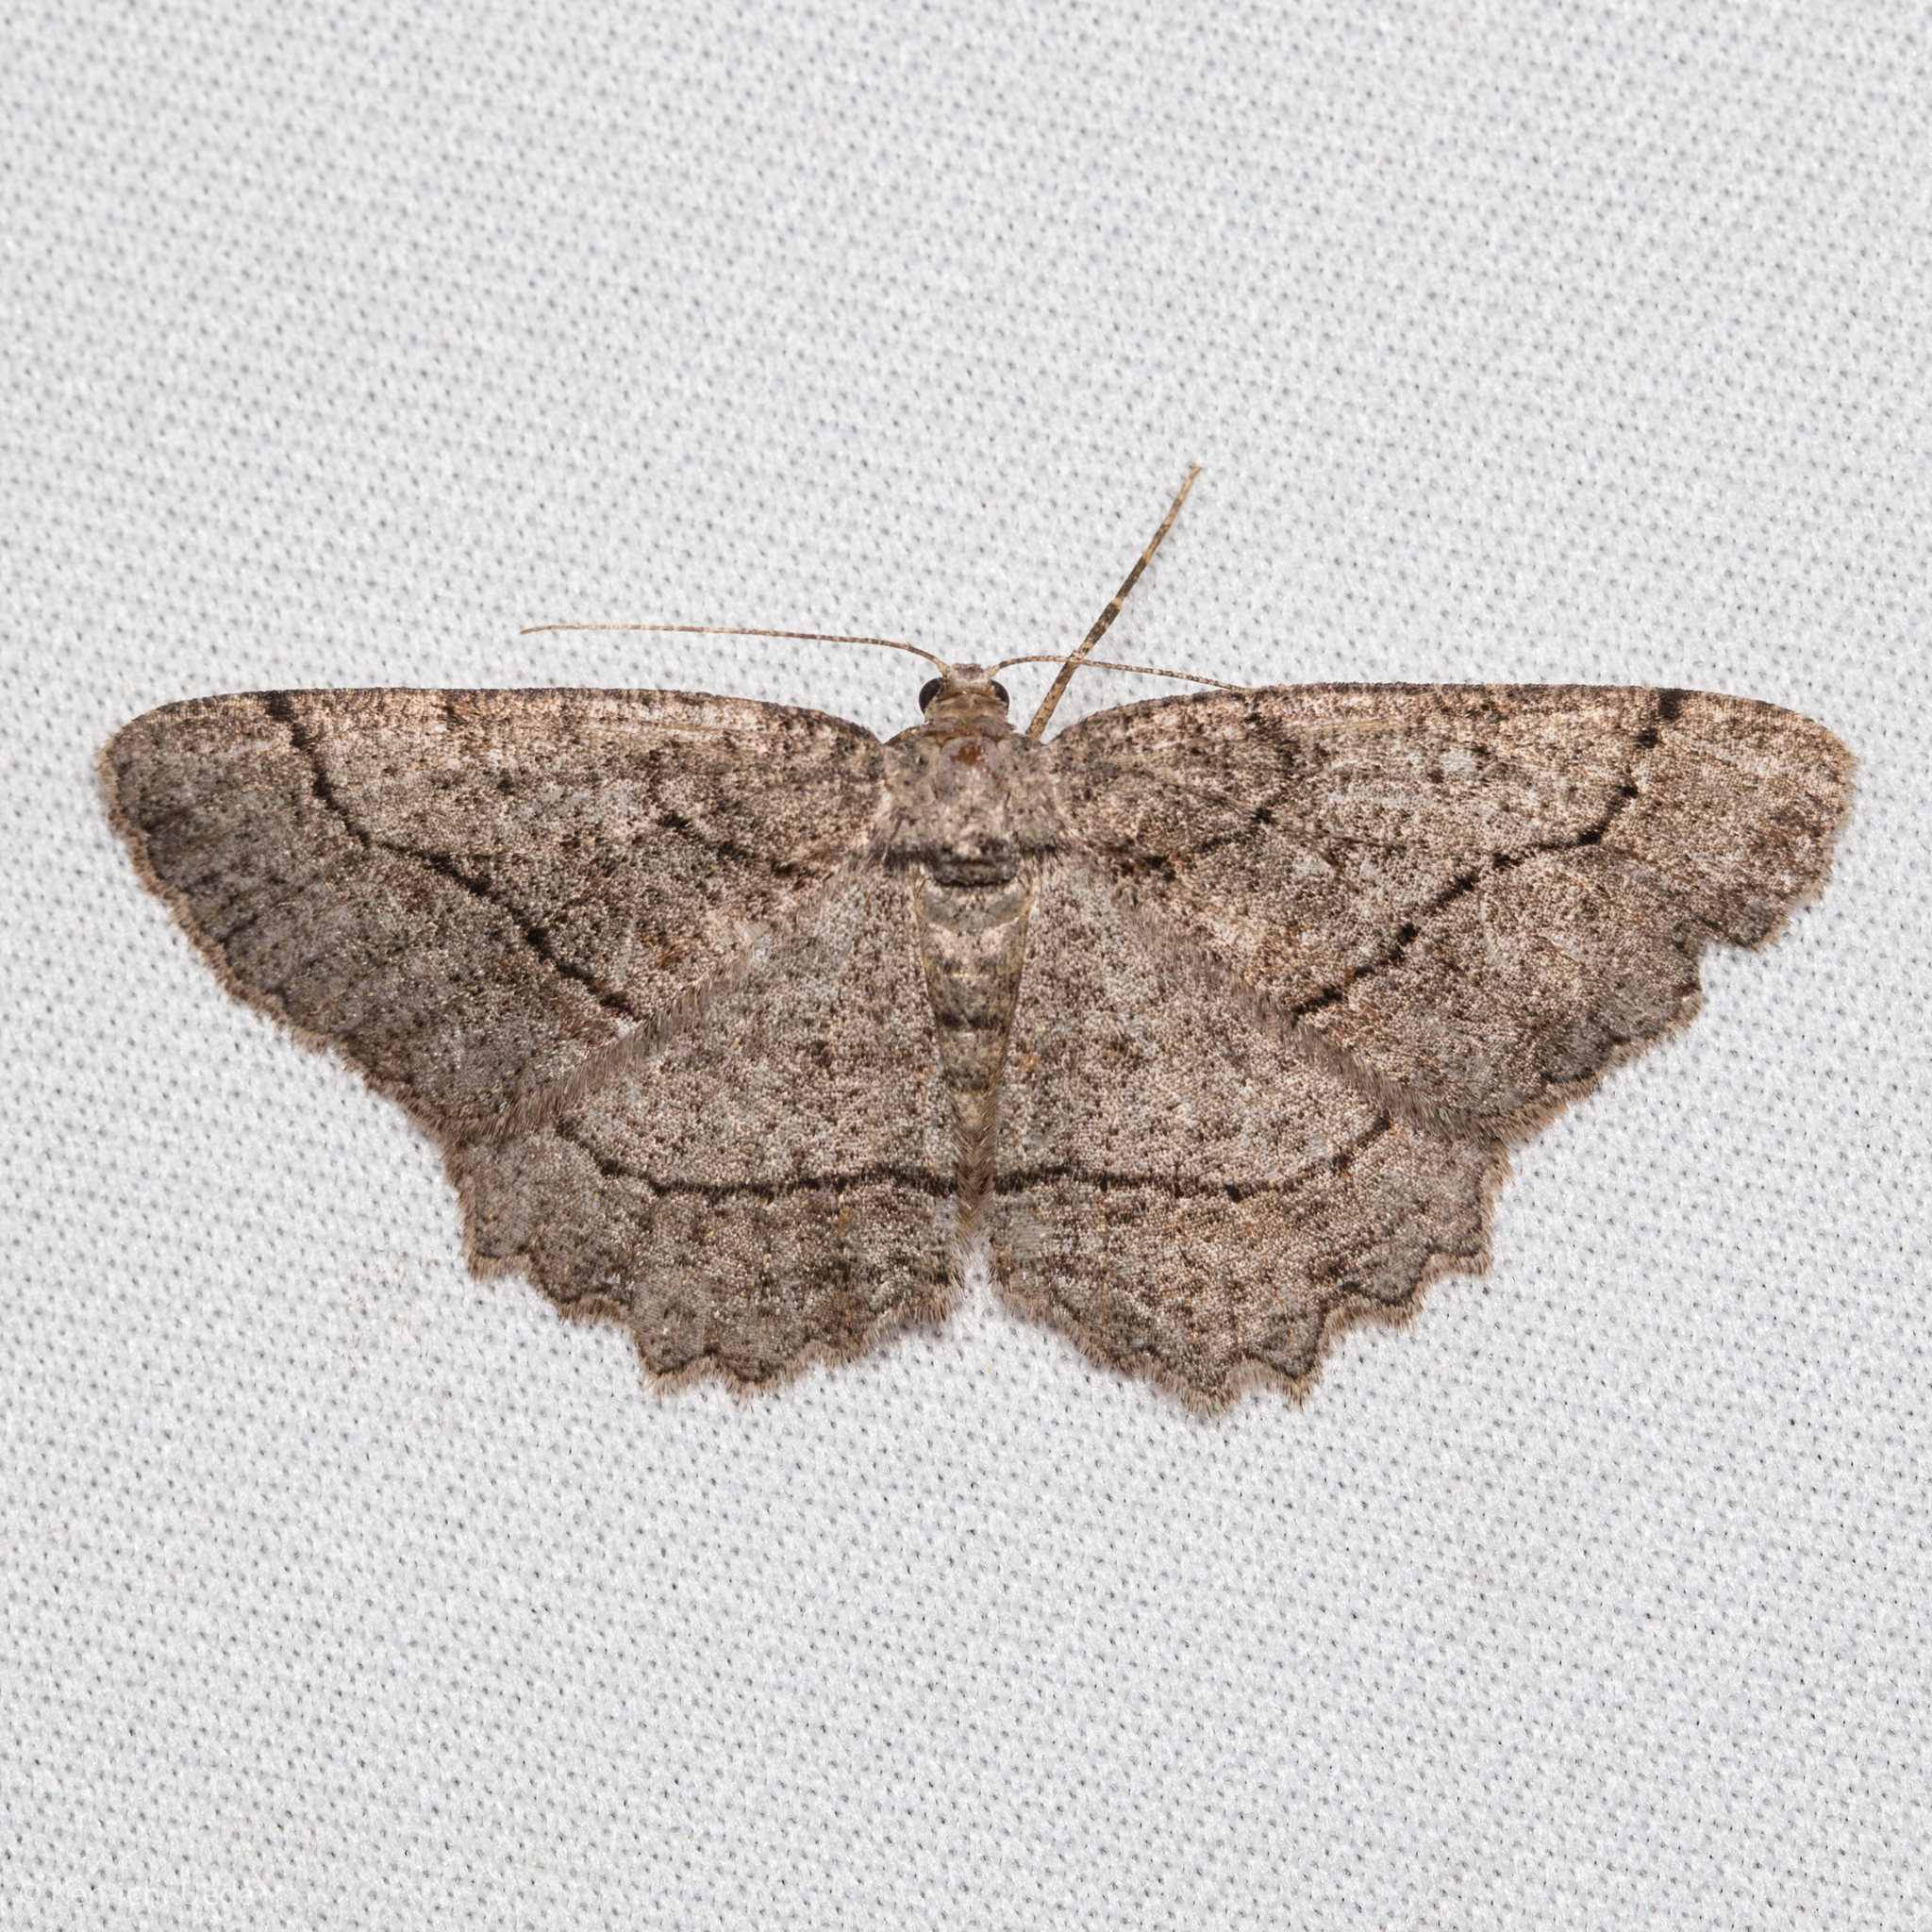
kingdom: Animalia
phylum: Arthropoda
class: Insecta
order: Lepidoptera
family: Geometridae
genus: Neoalcis
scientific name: Neoalcis californiaria
